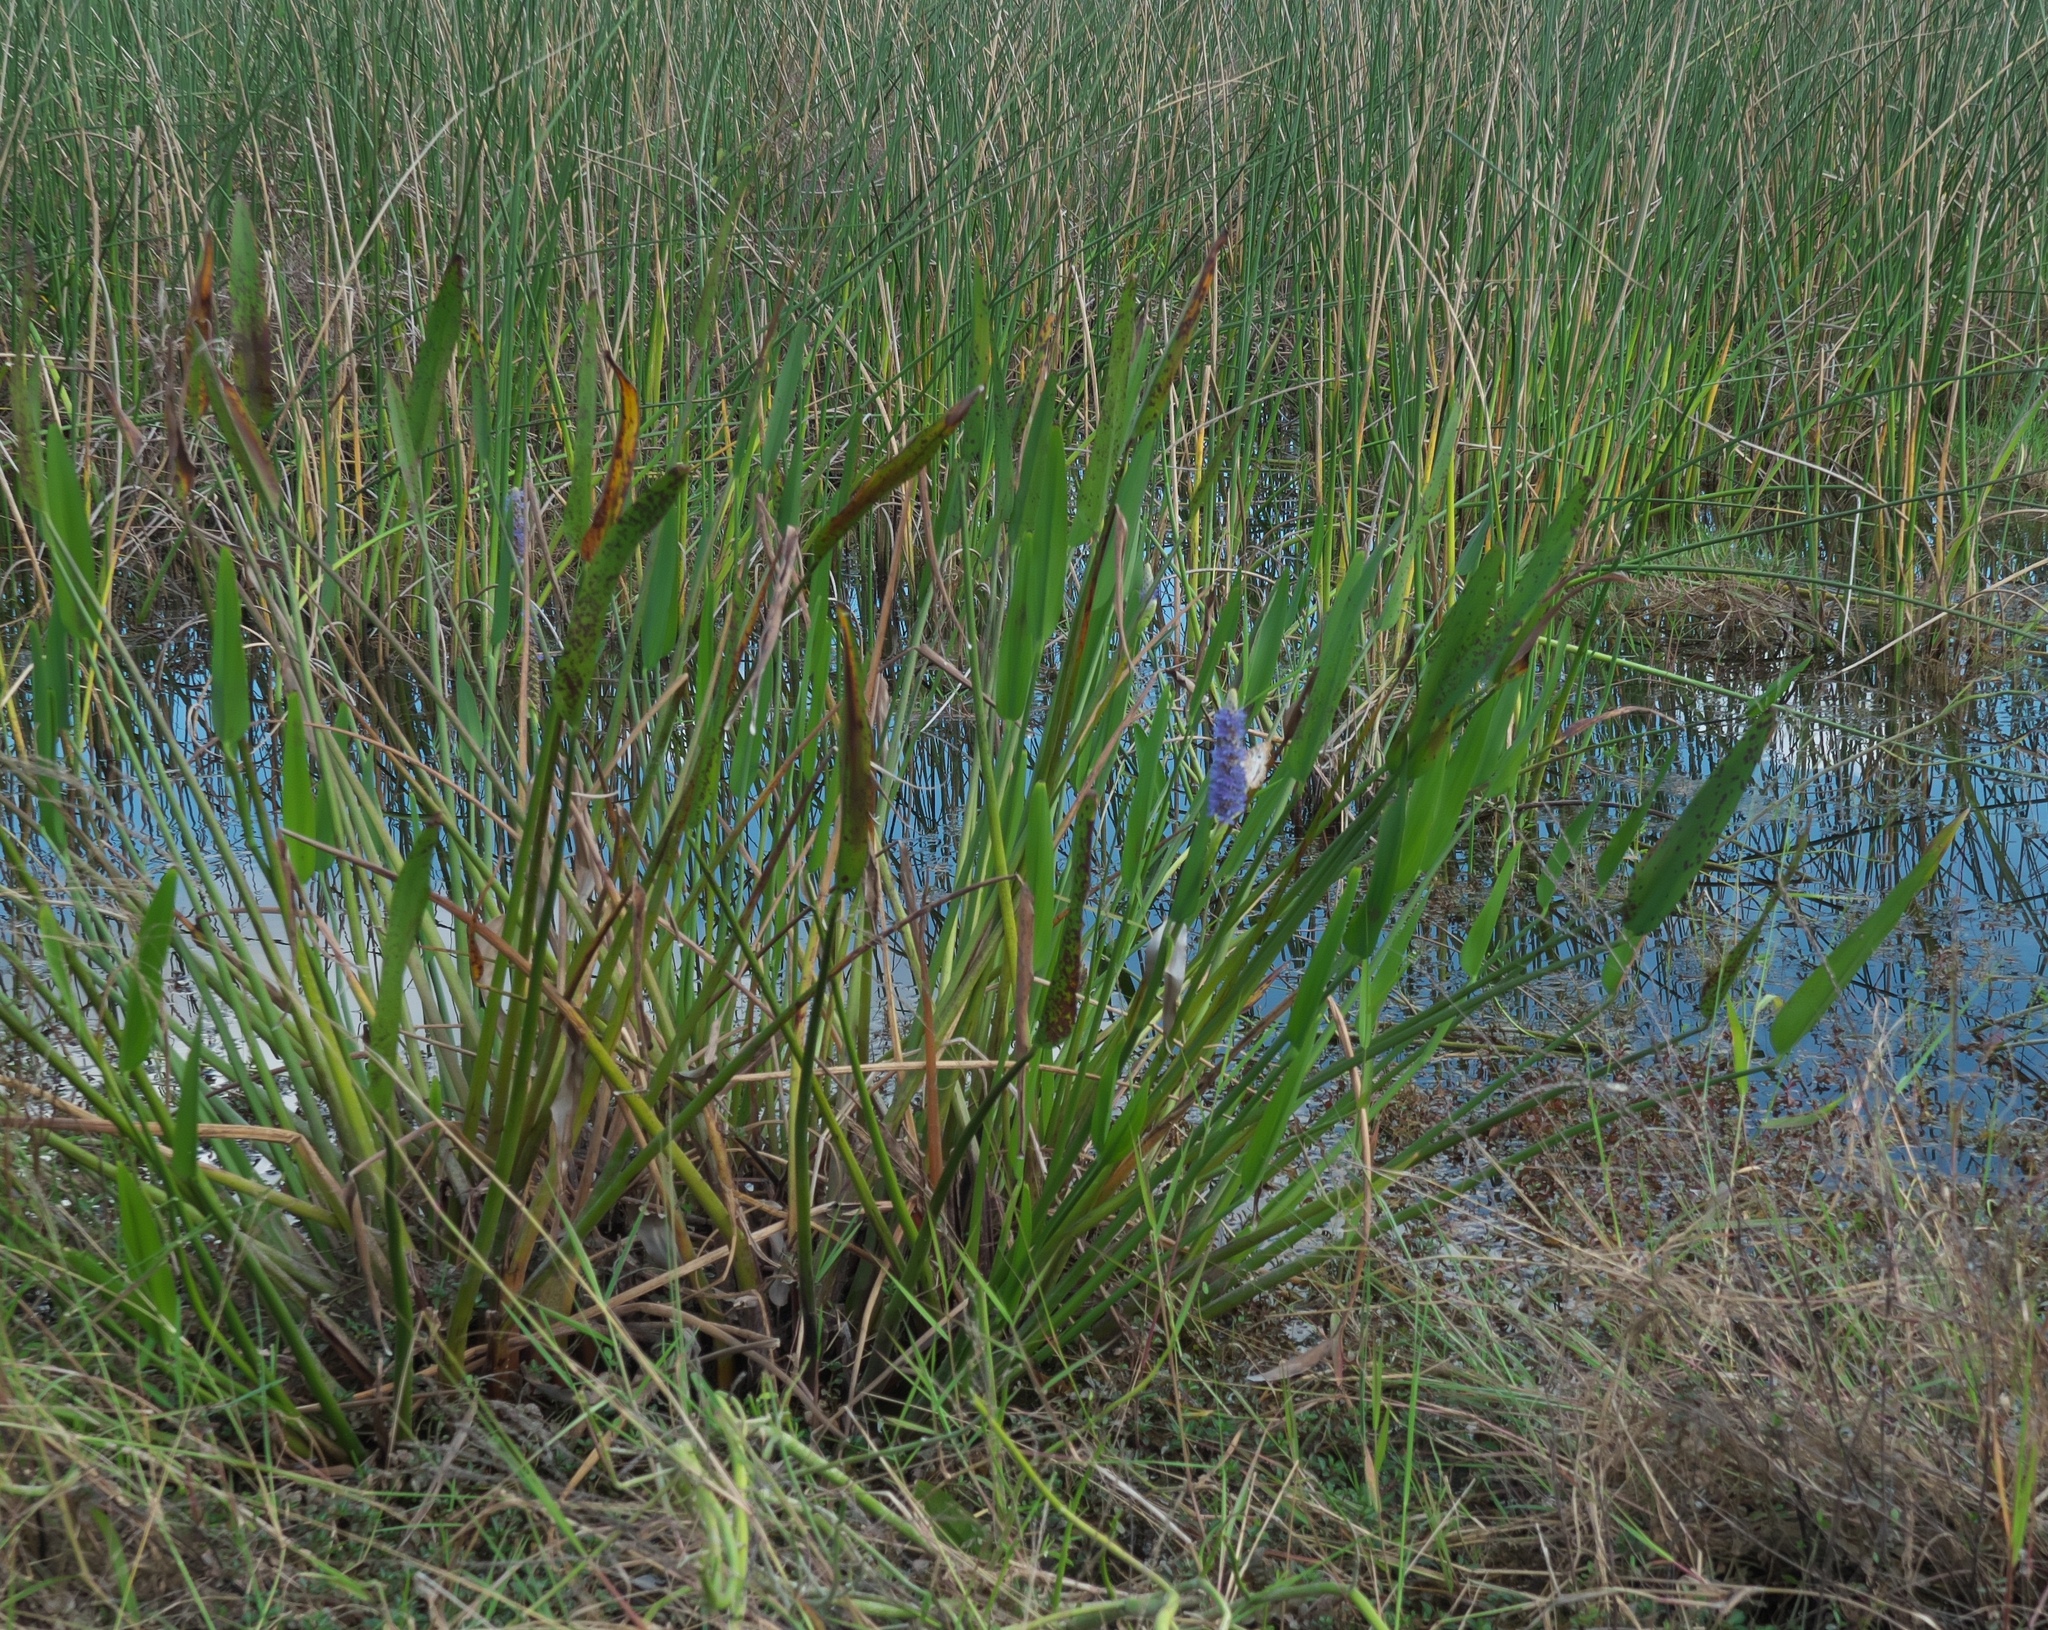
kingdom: Plantae
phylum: Tracheophyta
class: Liliopsida
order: Commelinales
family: Pontederiaceae
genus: Pontederia
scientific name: Pontederia cordata
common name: Pickerelweed
